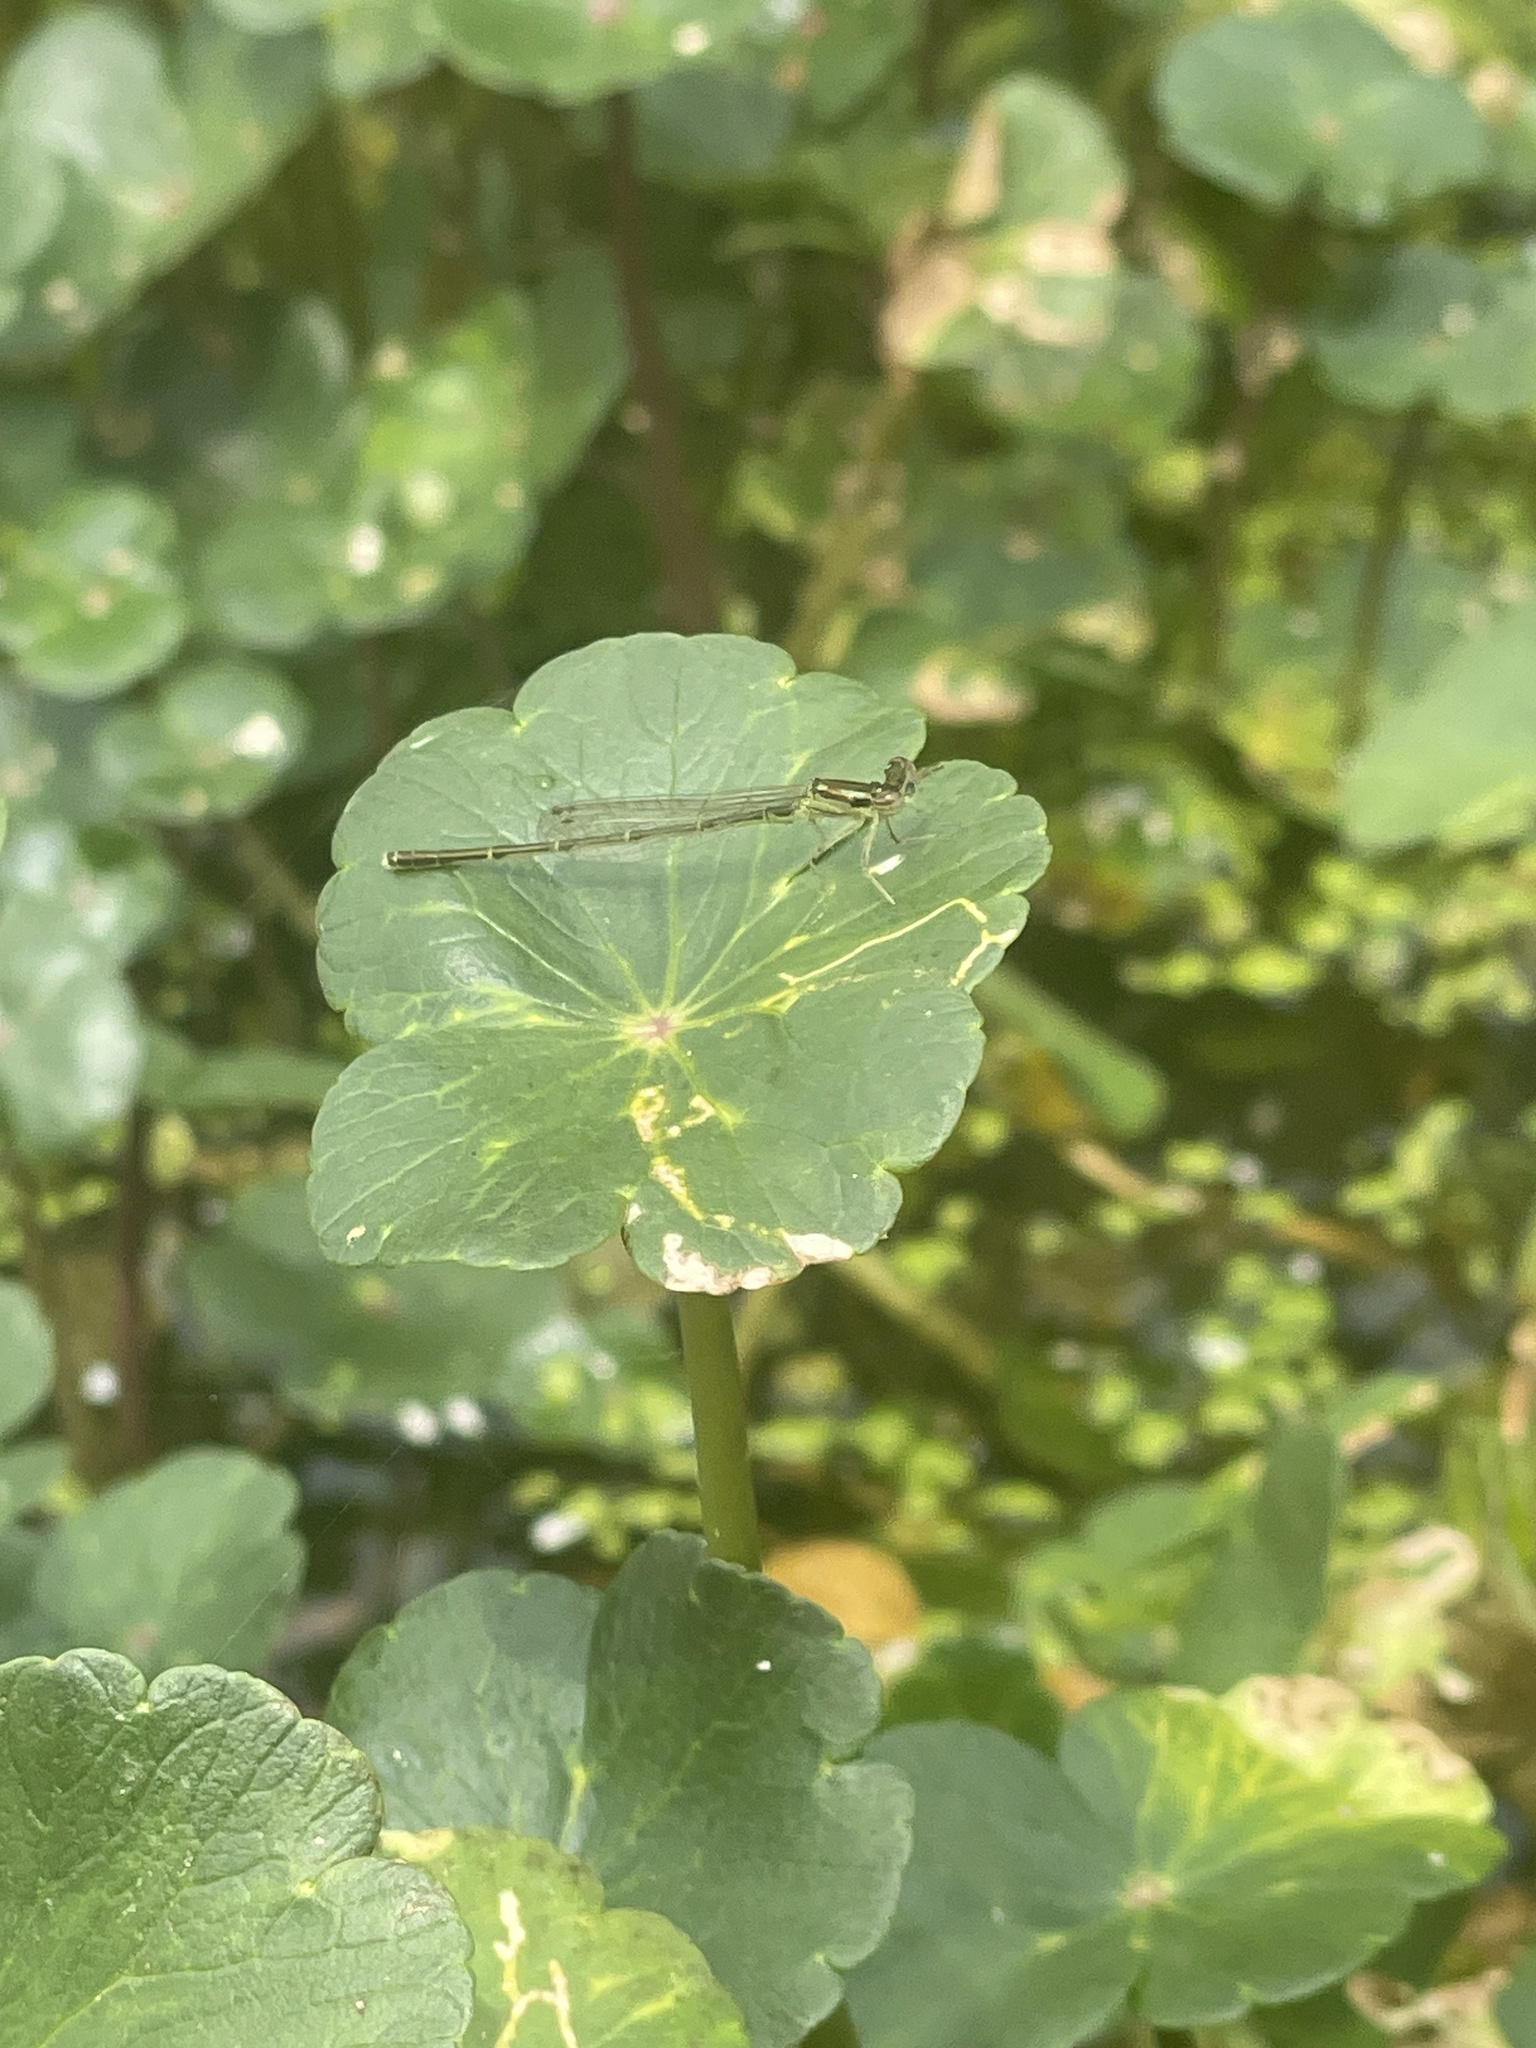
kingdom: Animalia
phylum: Arthropoda
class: Insecta
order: Odonata
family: Coenagrionidae
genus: Ischnura
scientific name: Ischnura posita
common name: Fragile forktail
